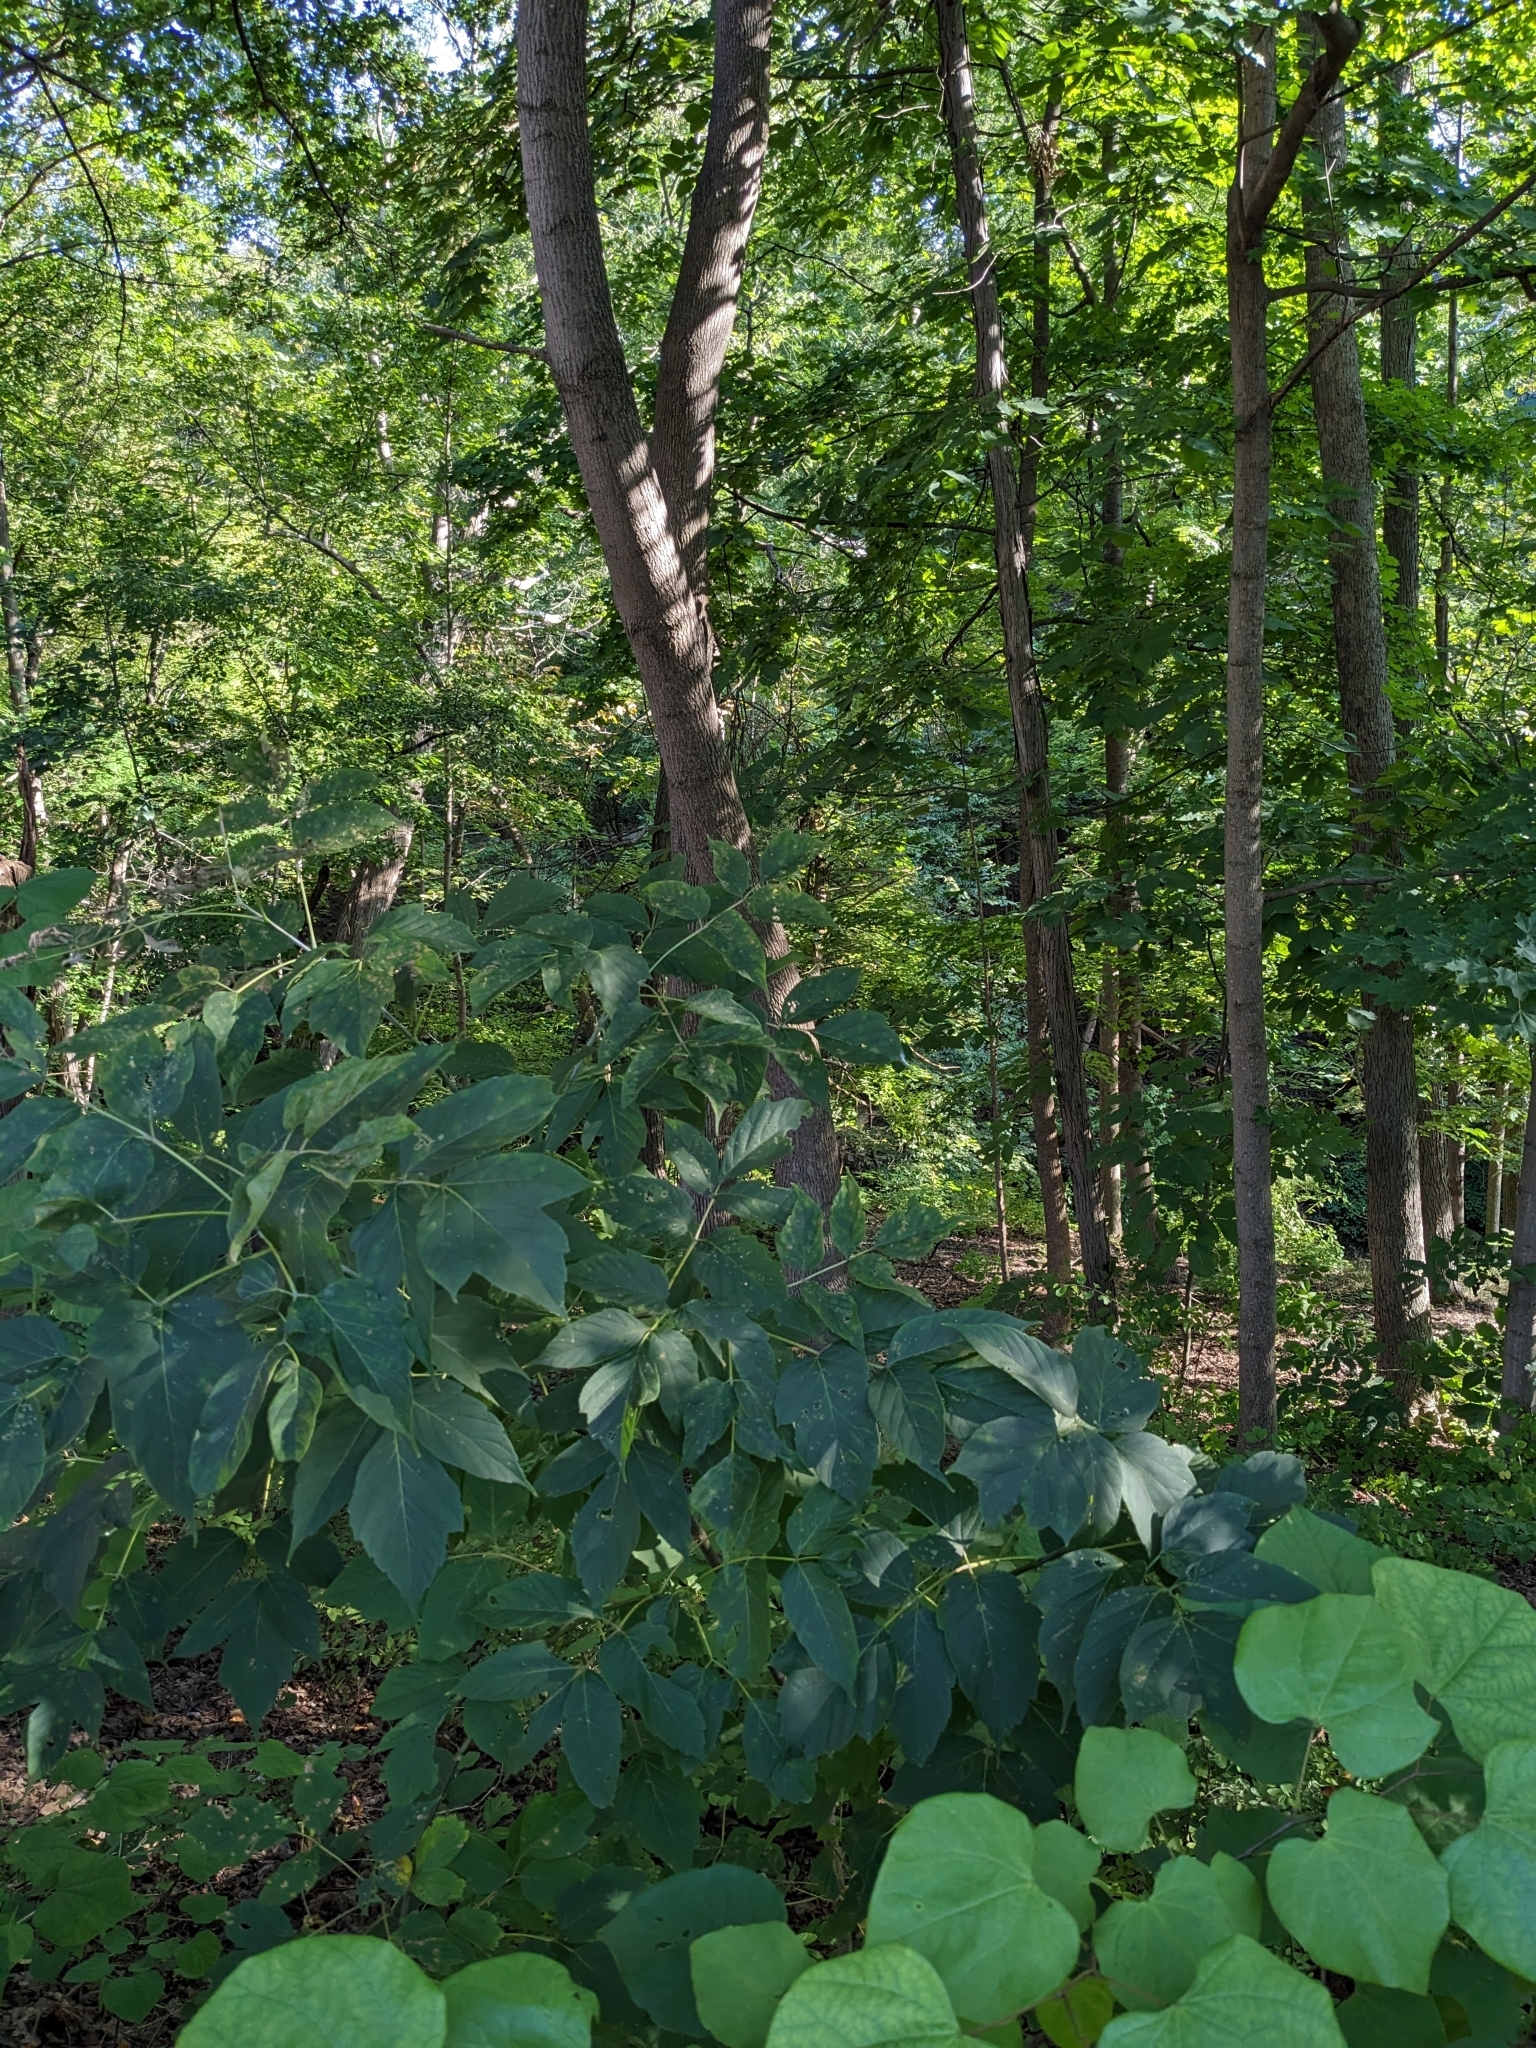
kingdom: Plantae
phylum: Tracheophyta
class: Magnoliopsida
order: Sapindales
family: Sapindaceae
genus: Acer
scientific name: Acer negundo
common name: Ashleaf maple
